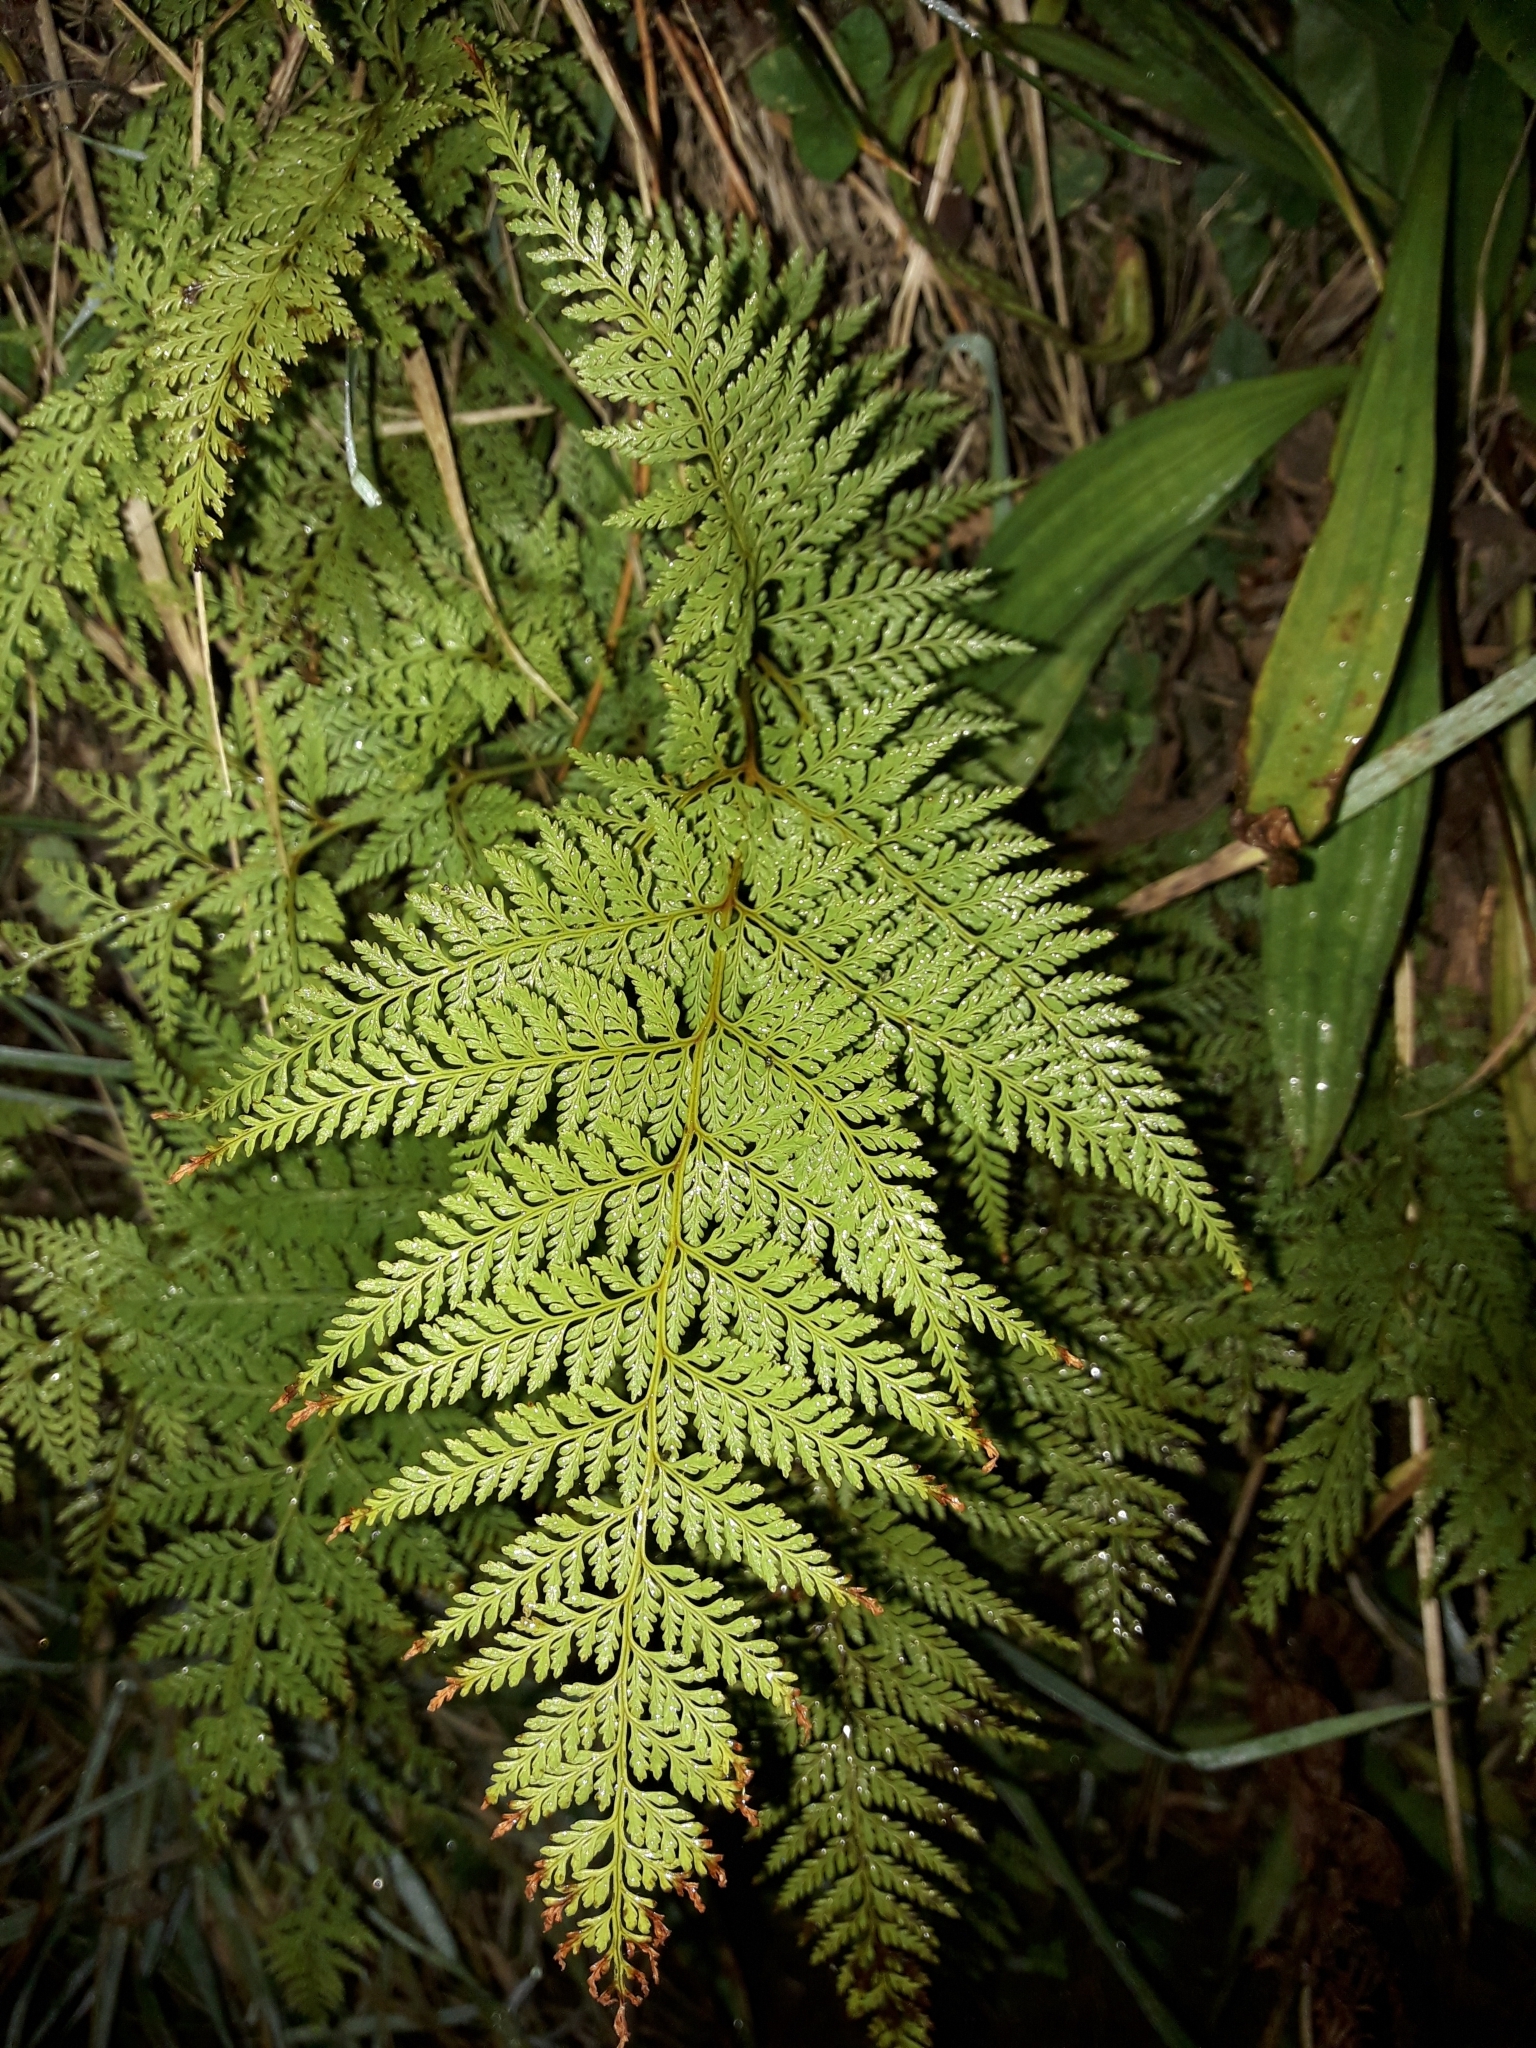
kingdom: Plantae
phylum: Tracheophyta
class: Polypodiopsida
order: Polypodiales
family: Dennstaedtiaceae
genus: Paesia
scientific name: Paesia scaberula
